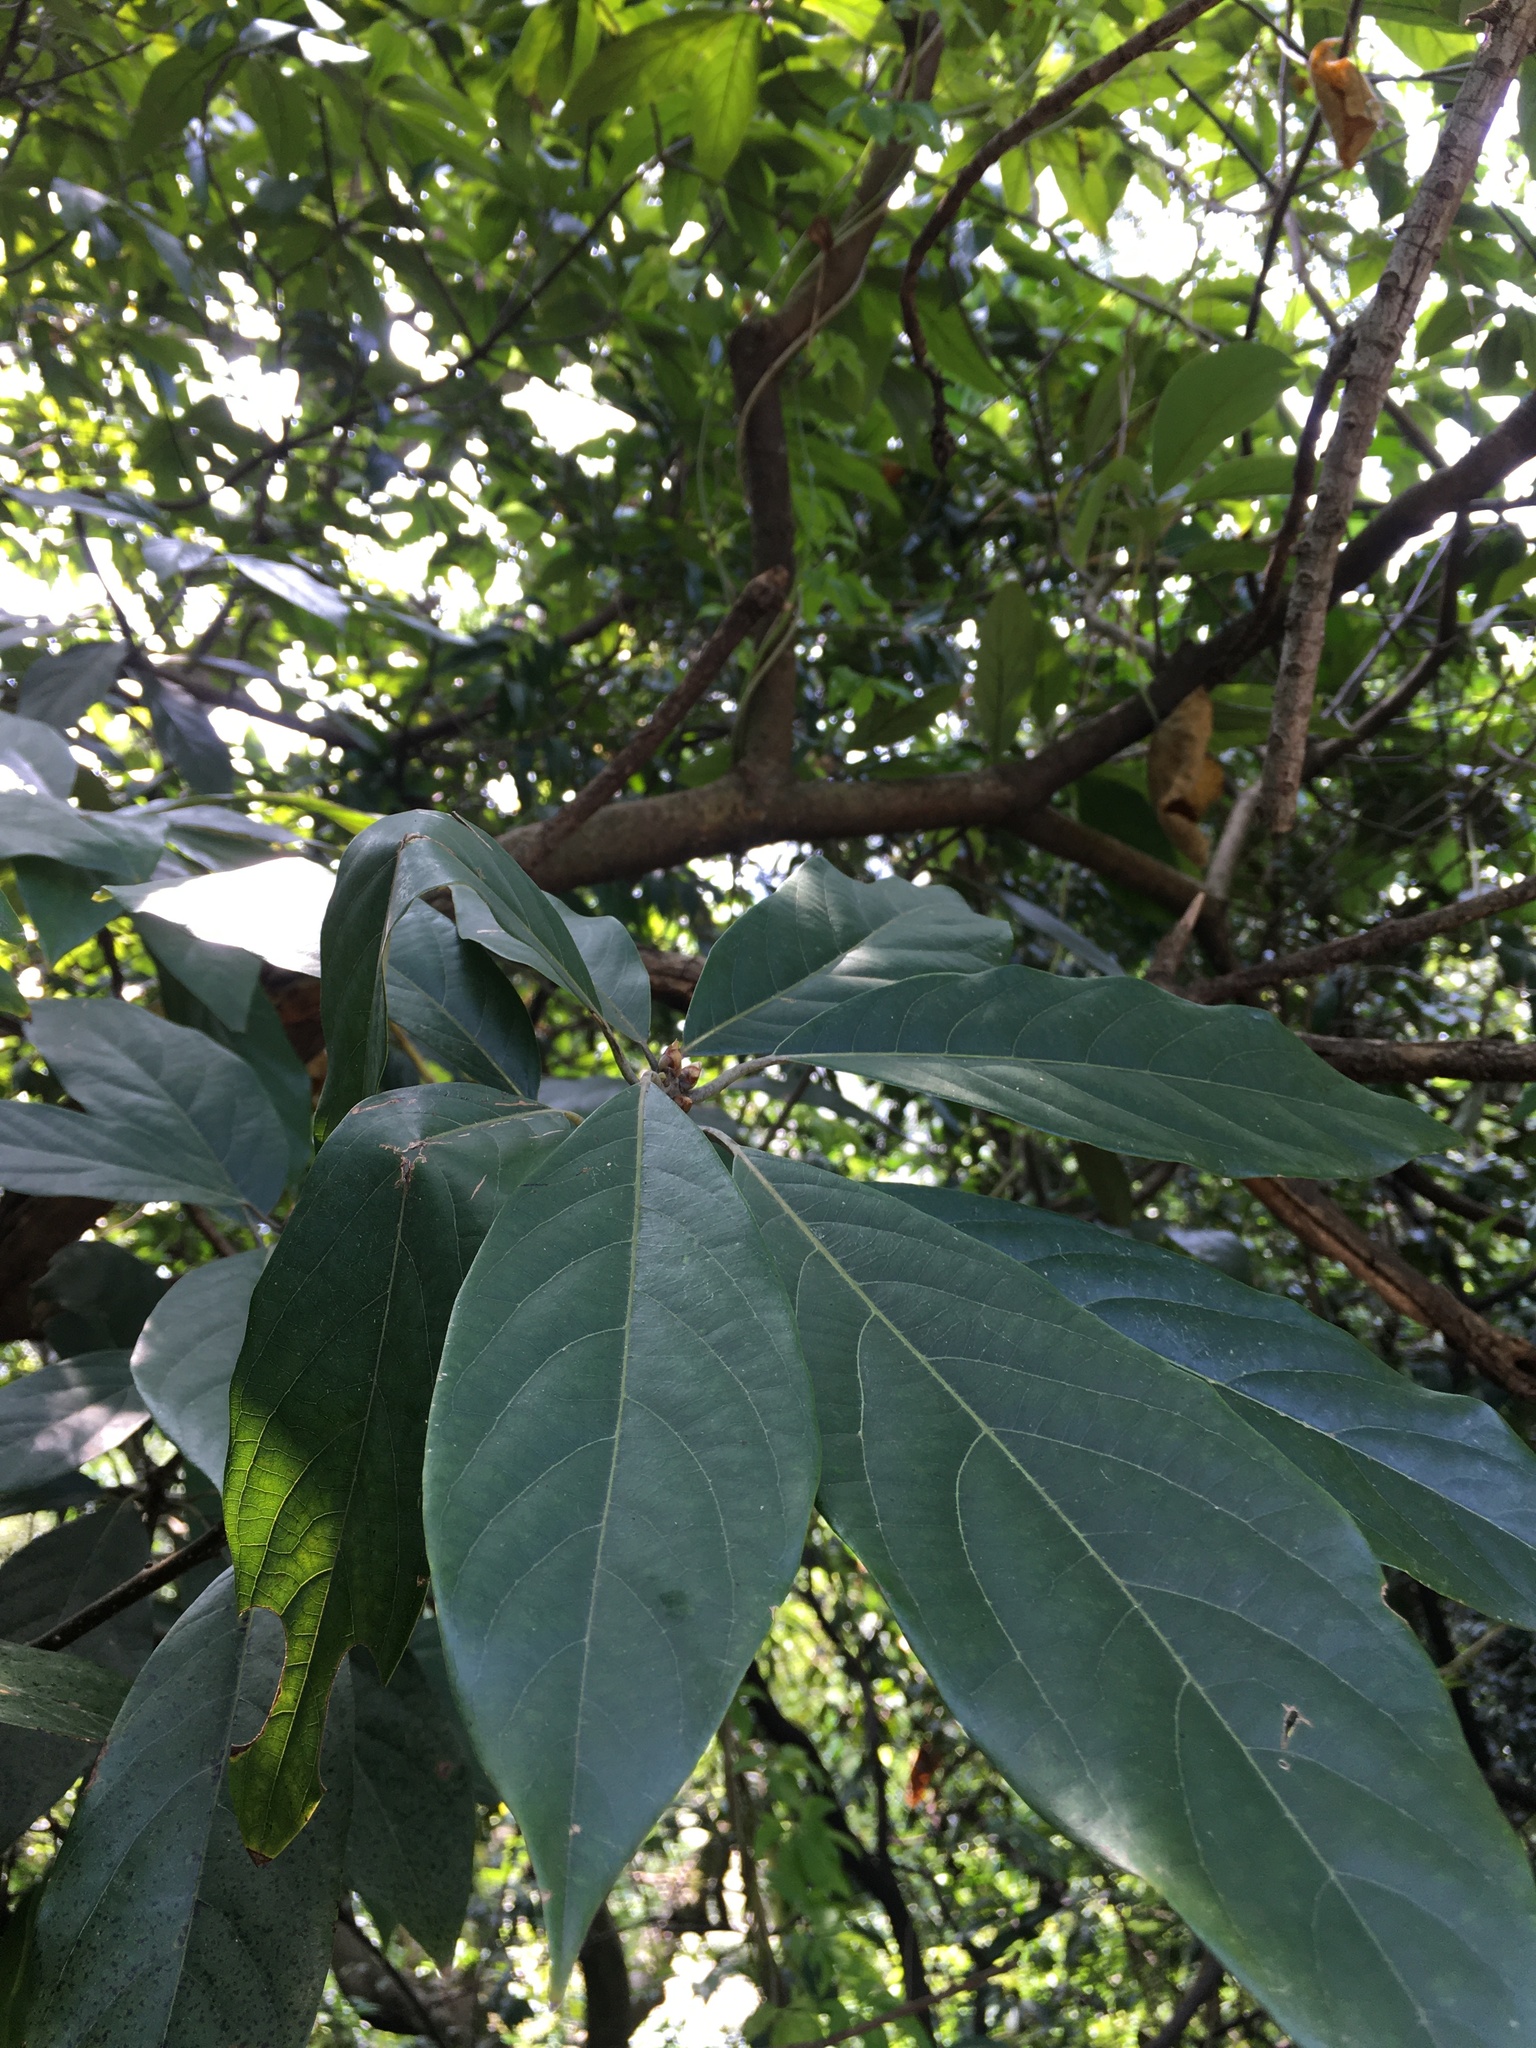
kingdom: Plantae
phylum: Tracheophyta
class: Magnoliopsida
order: Laurales
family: Lauraceae
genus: Lindera
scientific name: Lindera megaphylla
